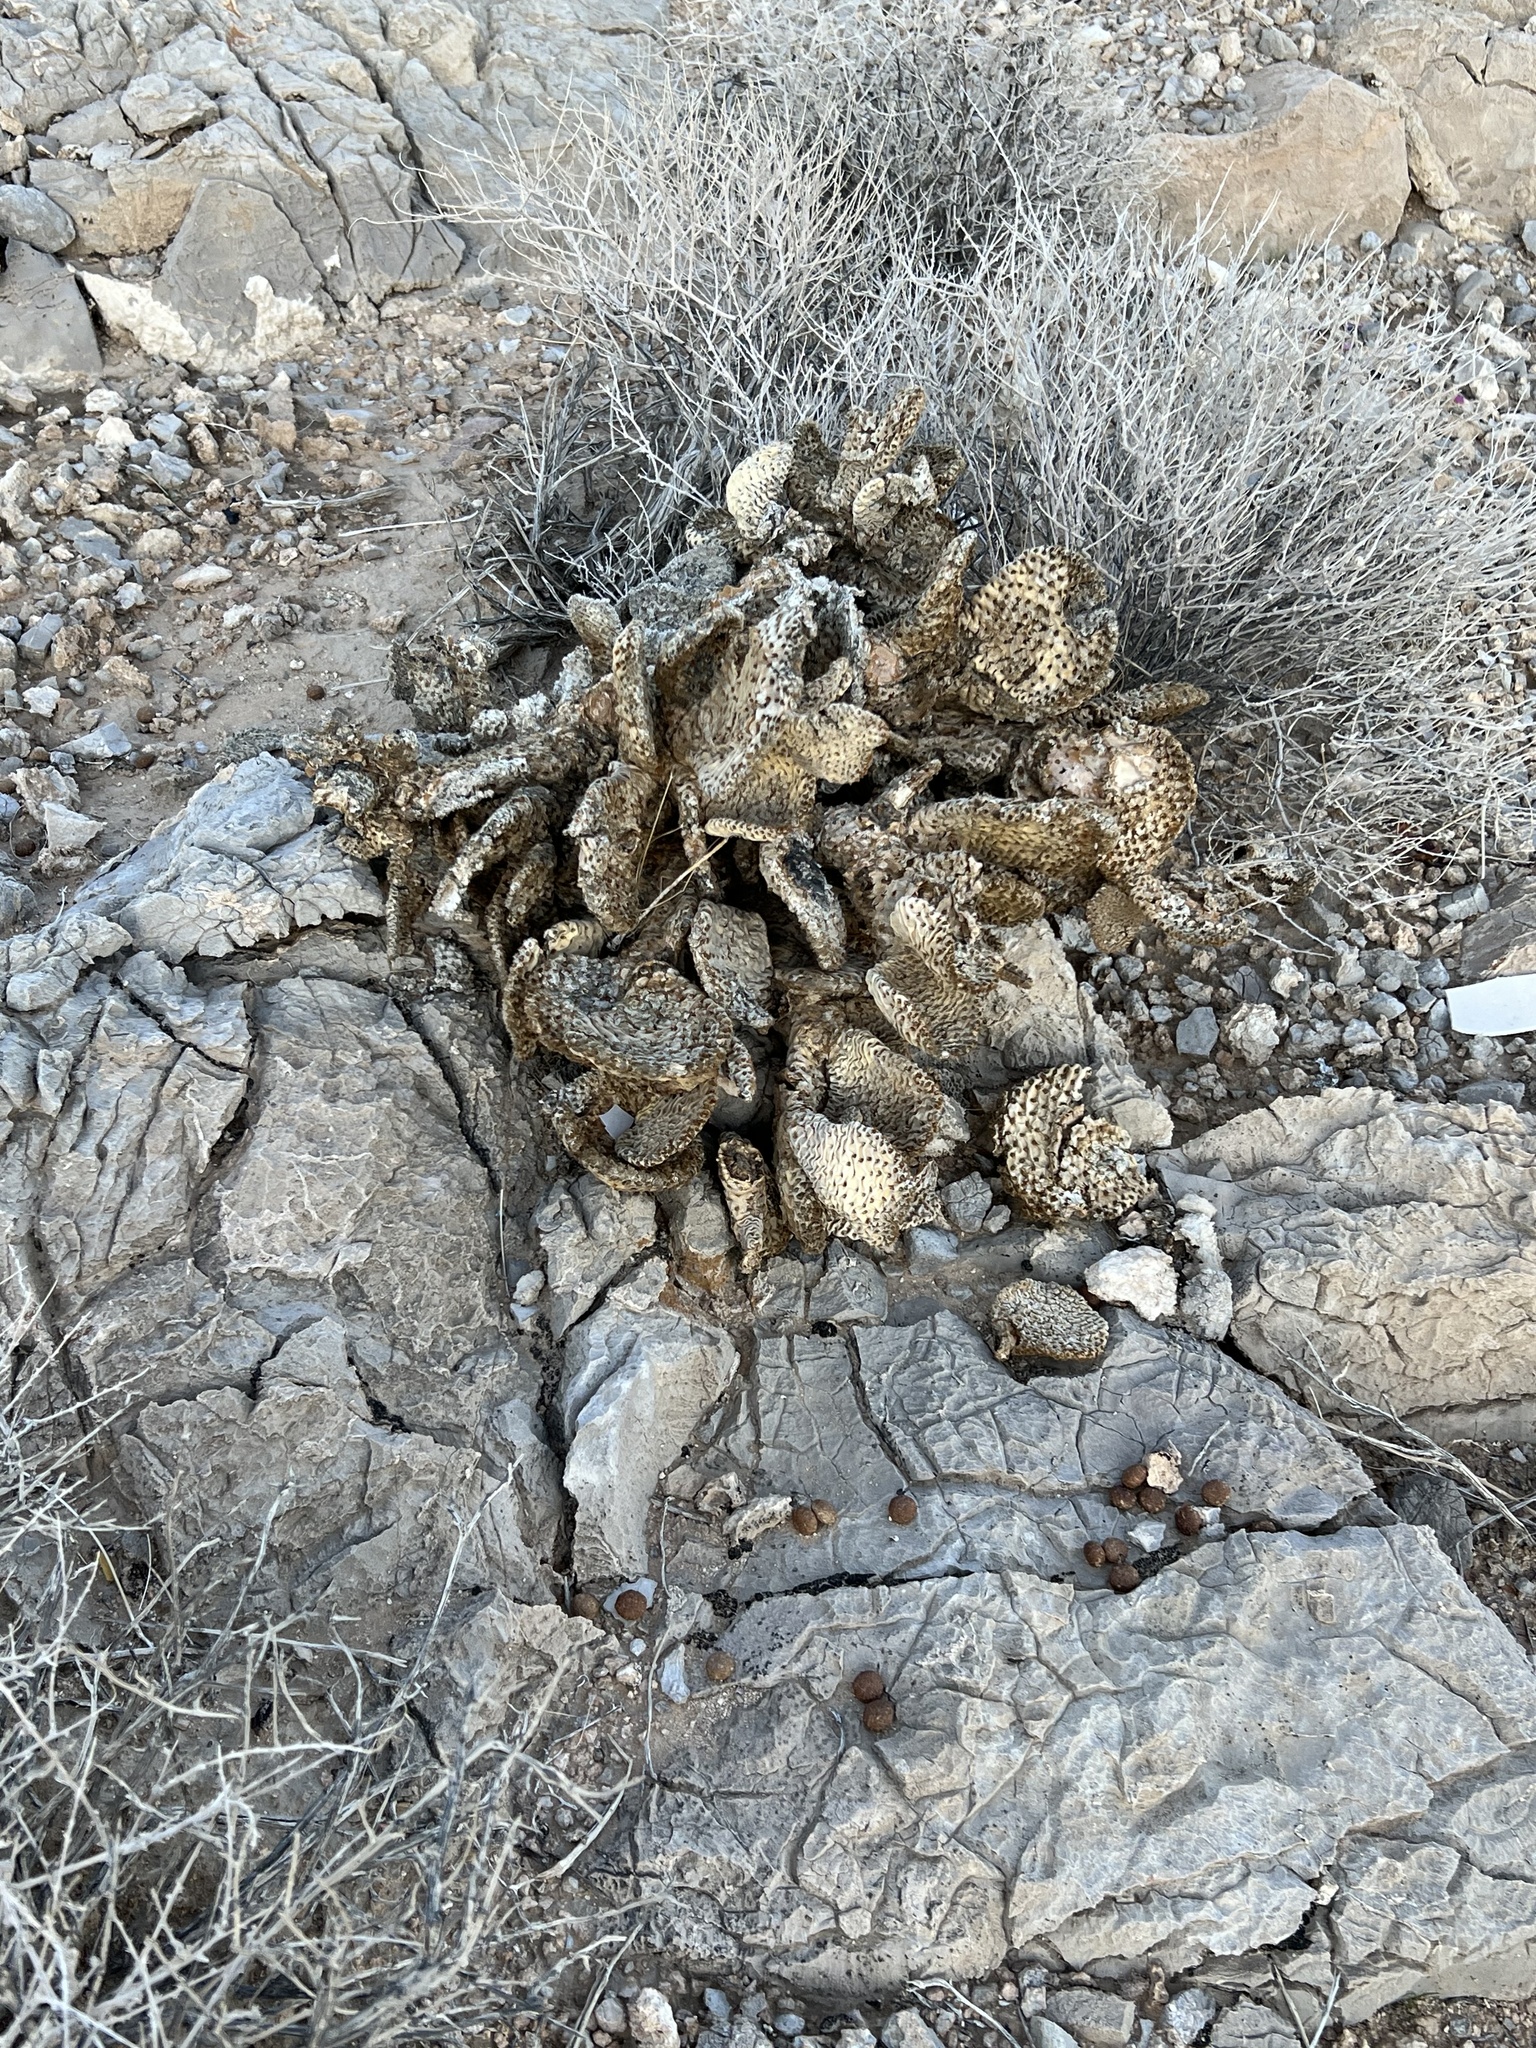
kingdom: Plantae
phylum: Tracheophyta
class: Magnoliopsida
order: Caryophyllales
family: Cactaceae
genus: Opuntia
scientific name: Opuntia basilaris
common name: Beavertail prickly-pear
